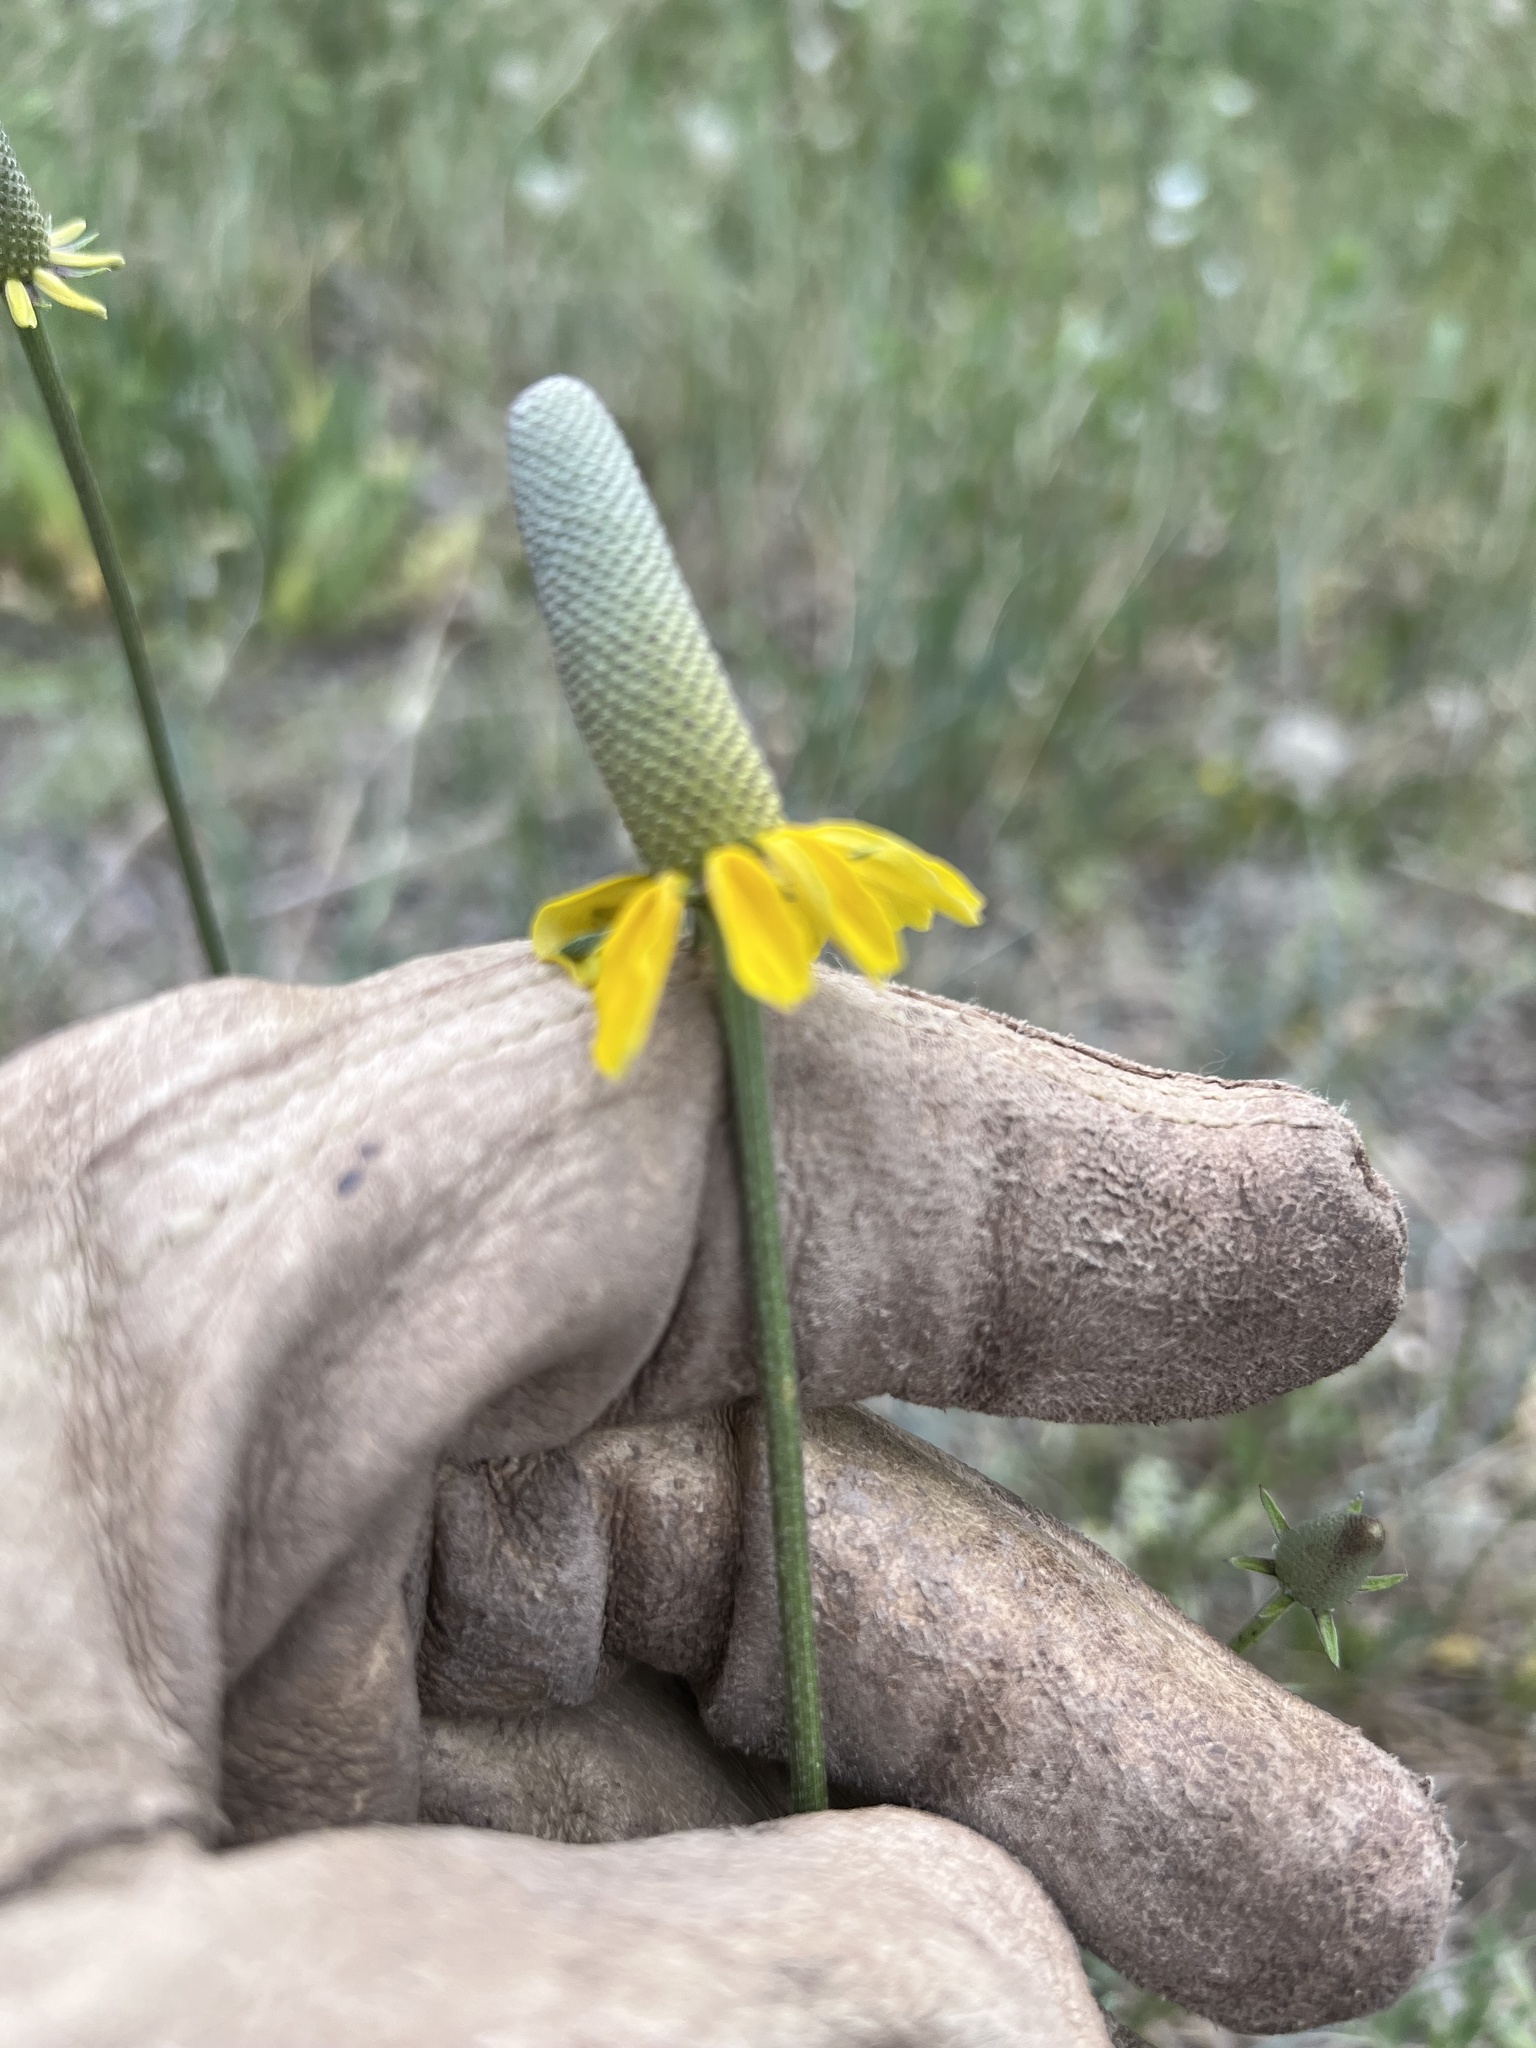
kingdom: Plantae
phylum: Tracheophyta
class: Magnoliopsida
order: Asterales
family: Asteraceae
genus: Ratibida
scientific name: Ratibida columnifera
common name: Prairie coneflower
